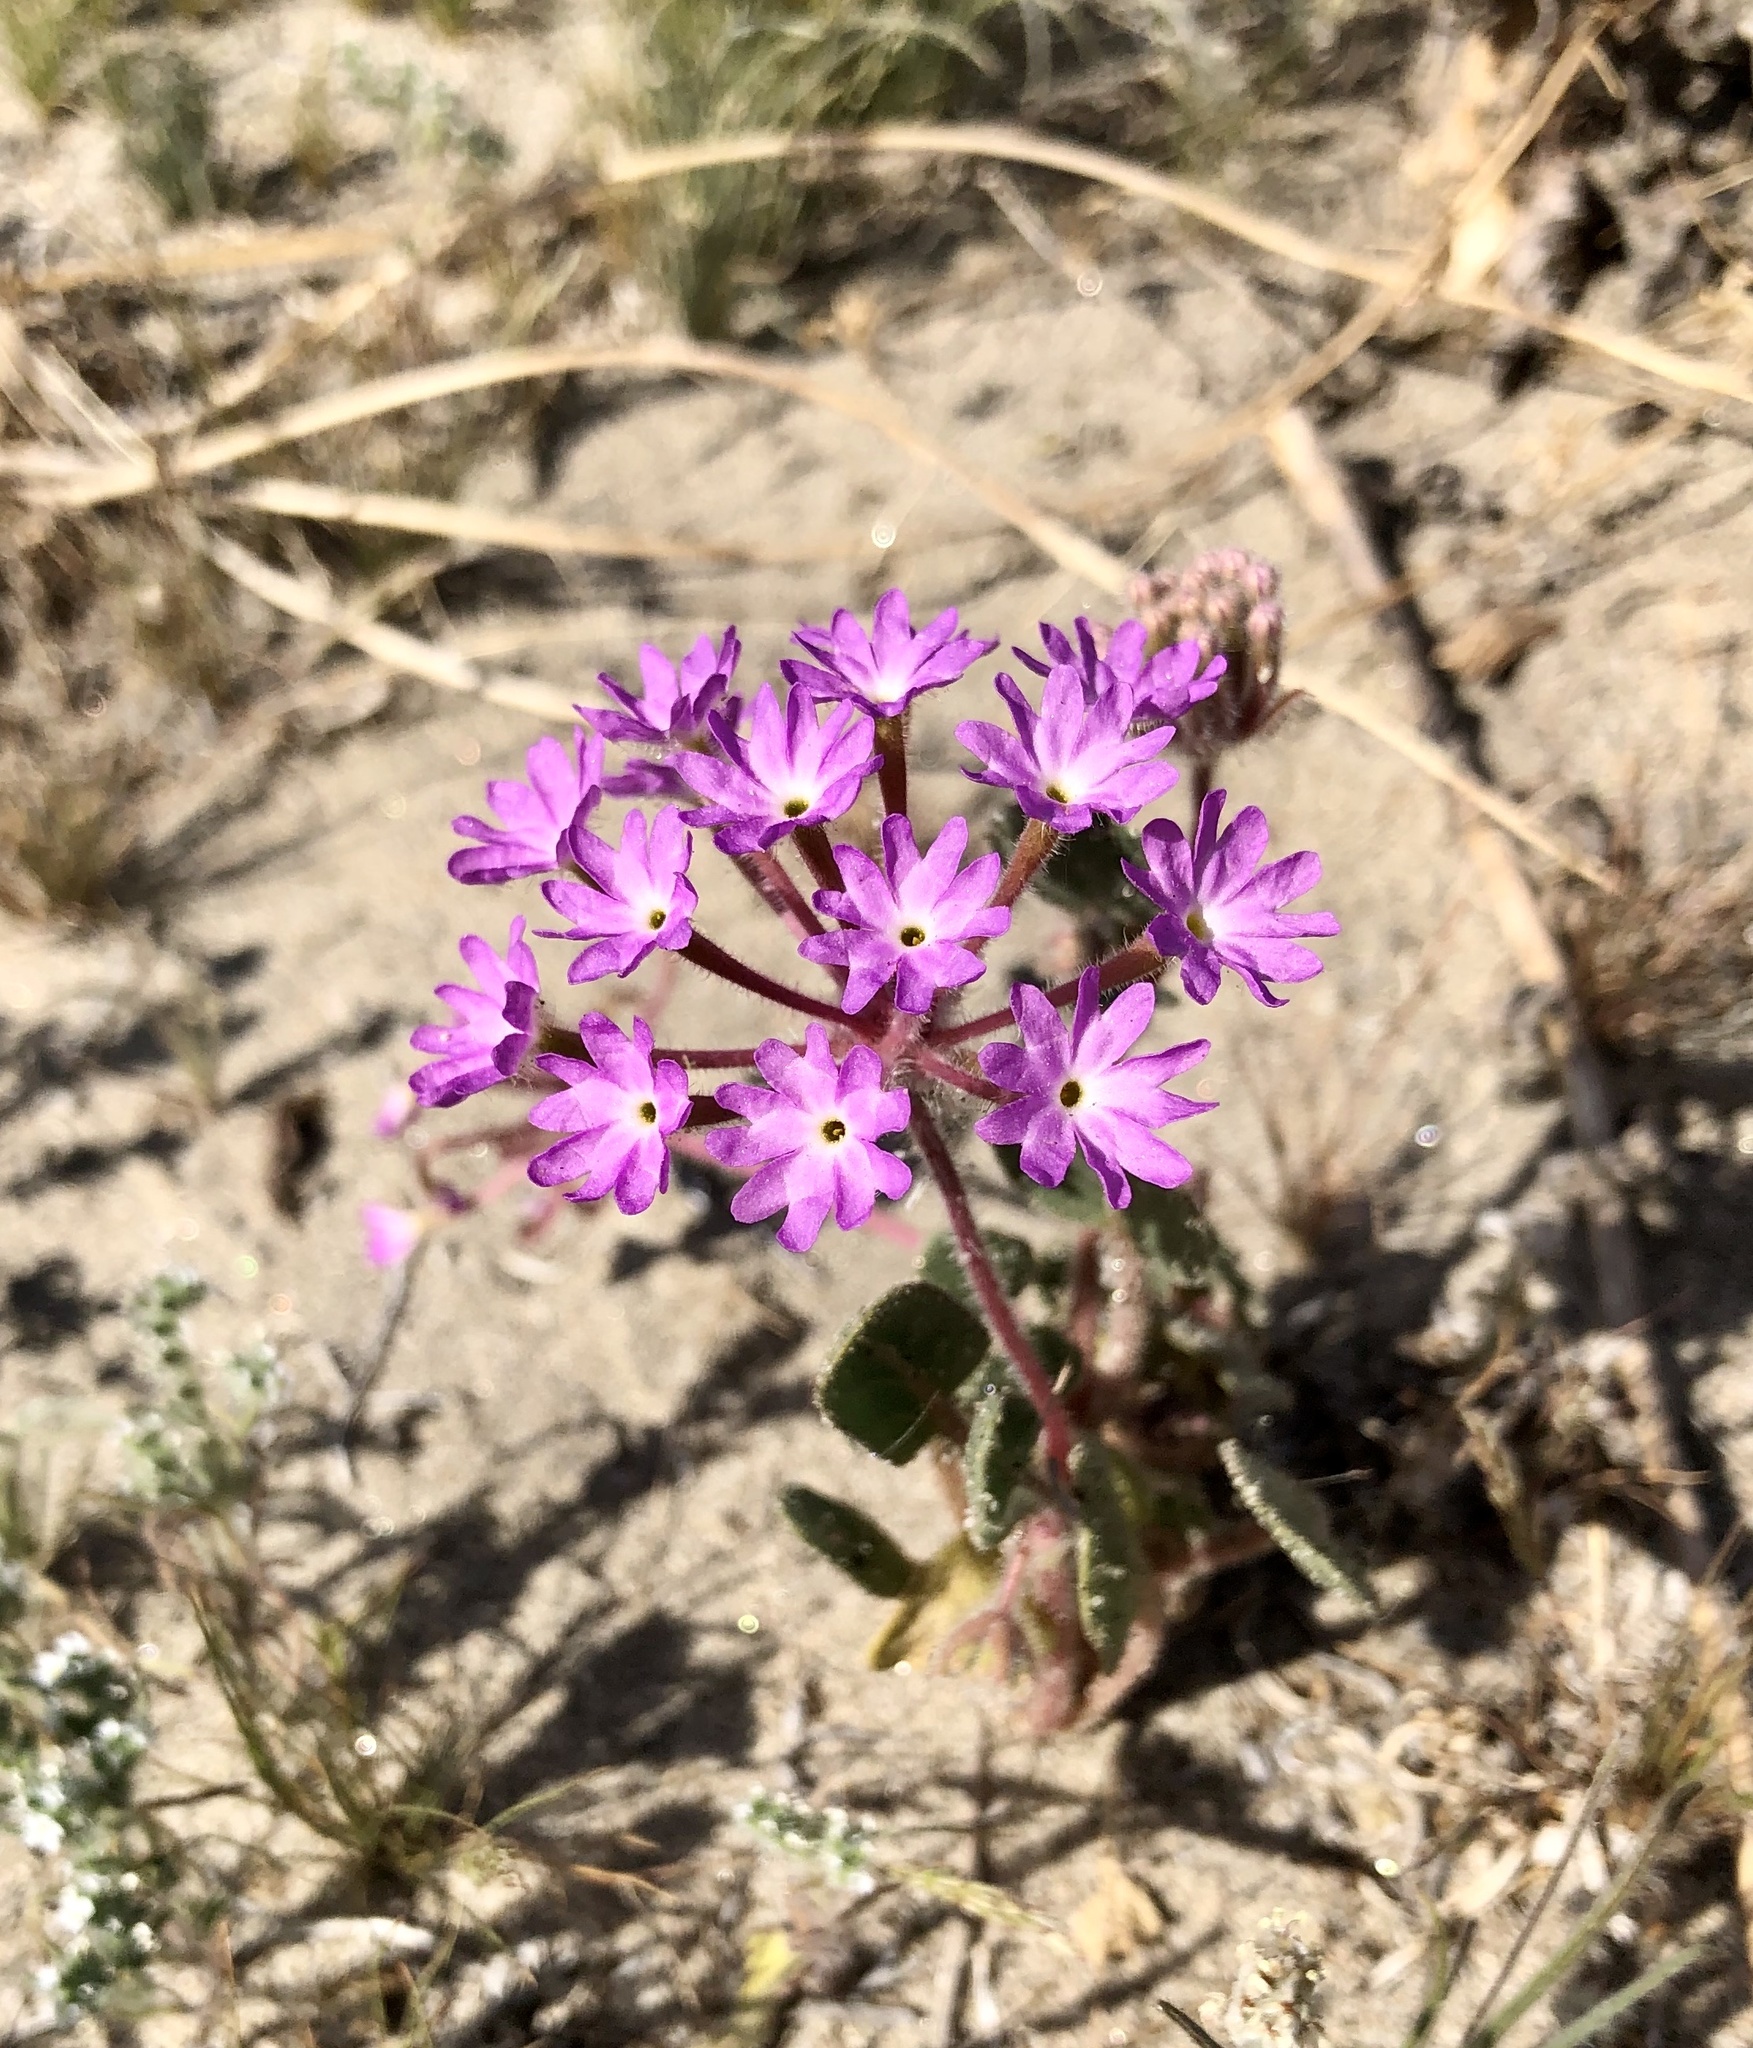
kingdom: Plantae
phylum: Tracheophyta
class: Magnoliopsida
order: Caryophyllales
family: Nyctaginaceae
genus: Abronia
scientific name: Abronia villosa
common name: Desert sand-verbena
